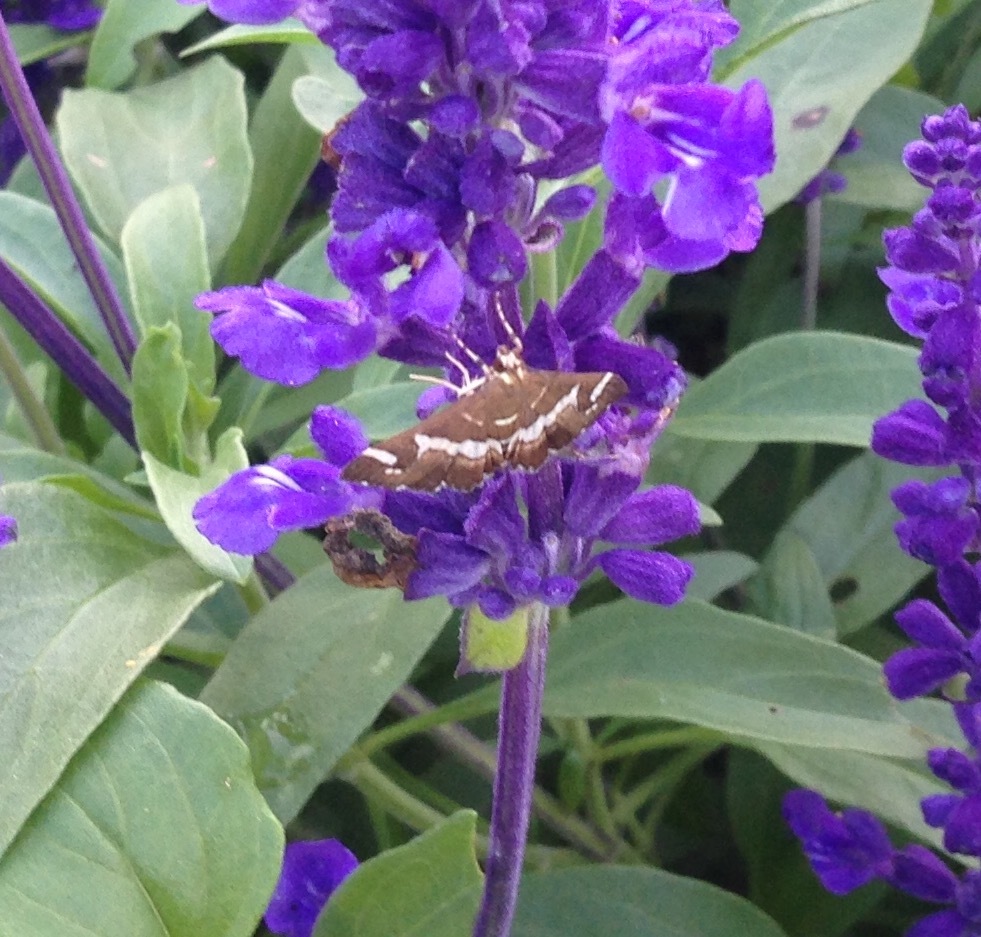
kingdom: Animalia
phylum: Arthropoda
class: Insecta
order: Lepidoptera
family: Crambidae
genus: Spoladea
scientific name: Spoladea recurvalis
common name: Beet webworm moth
